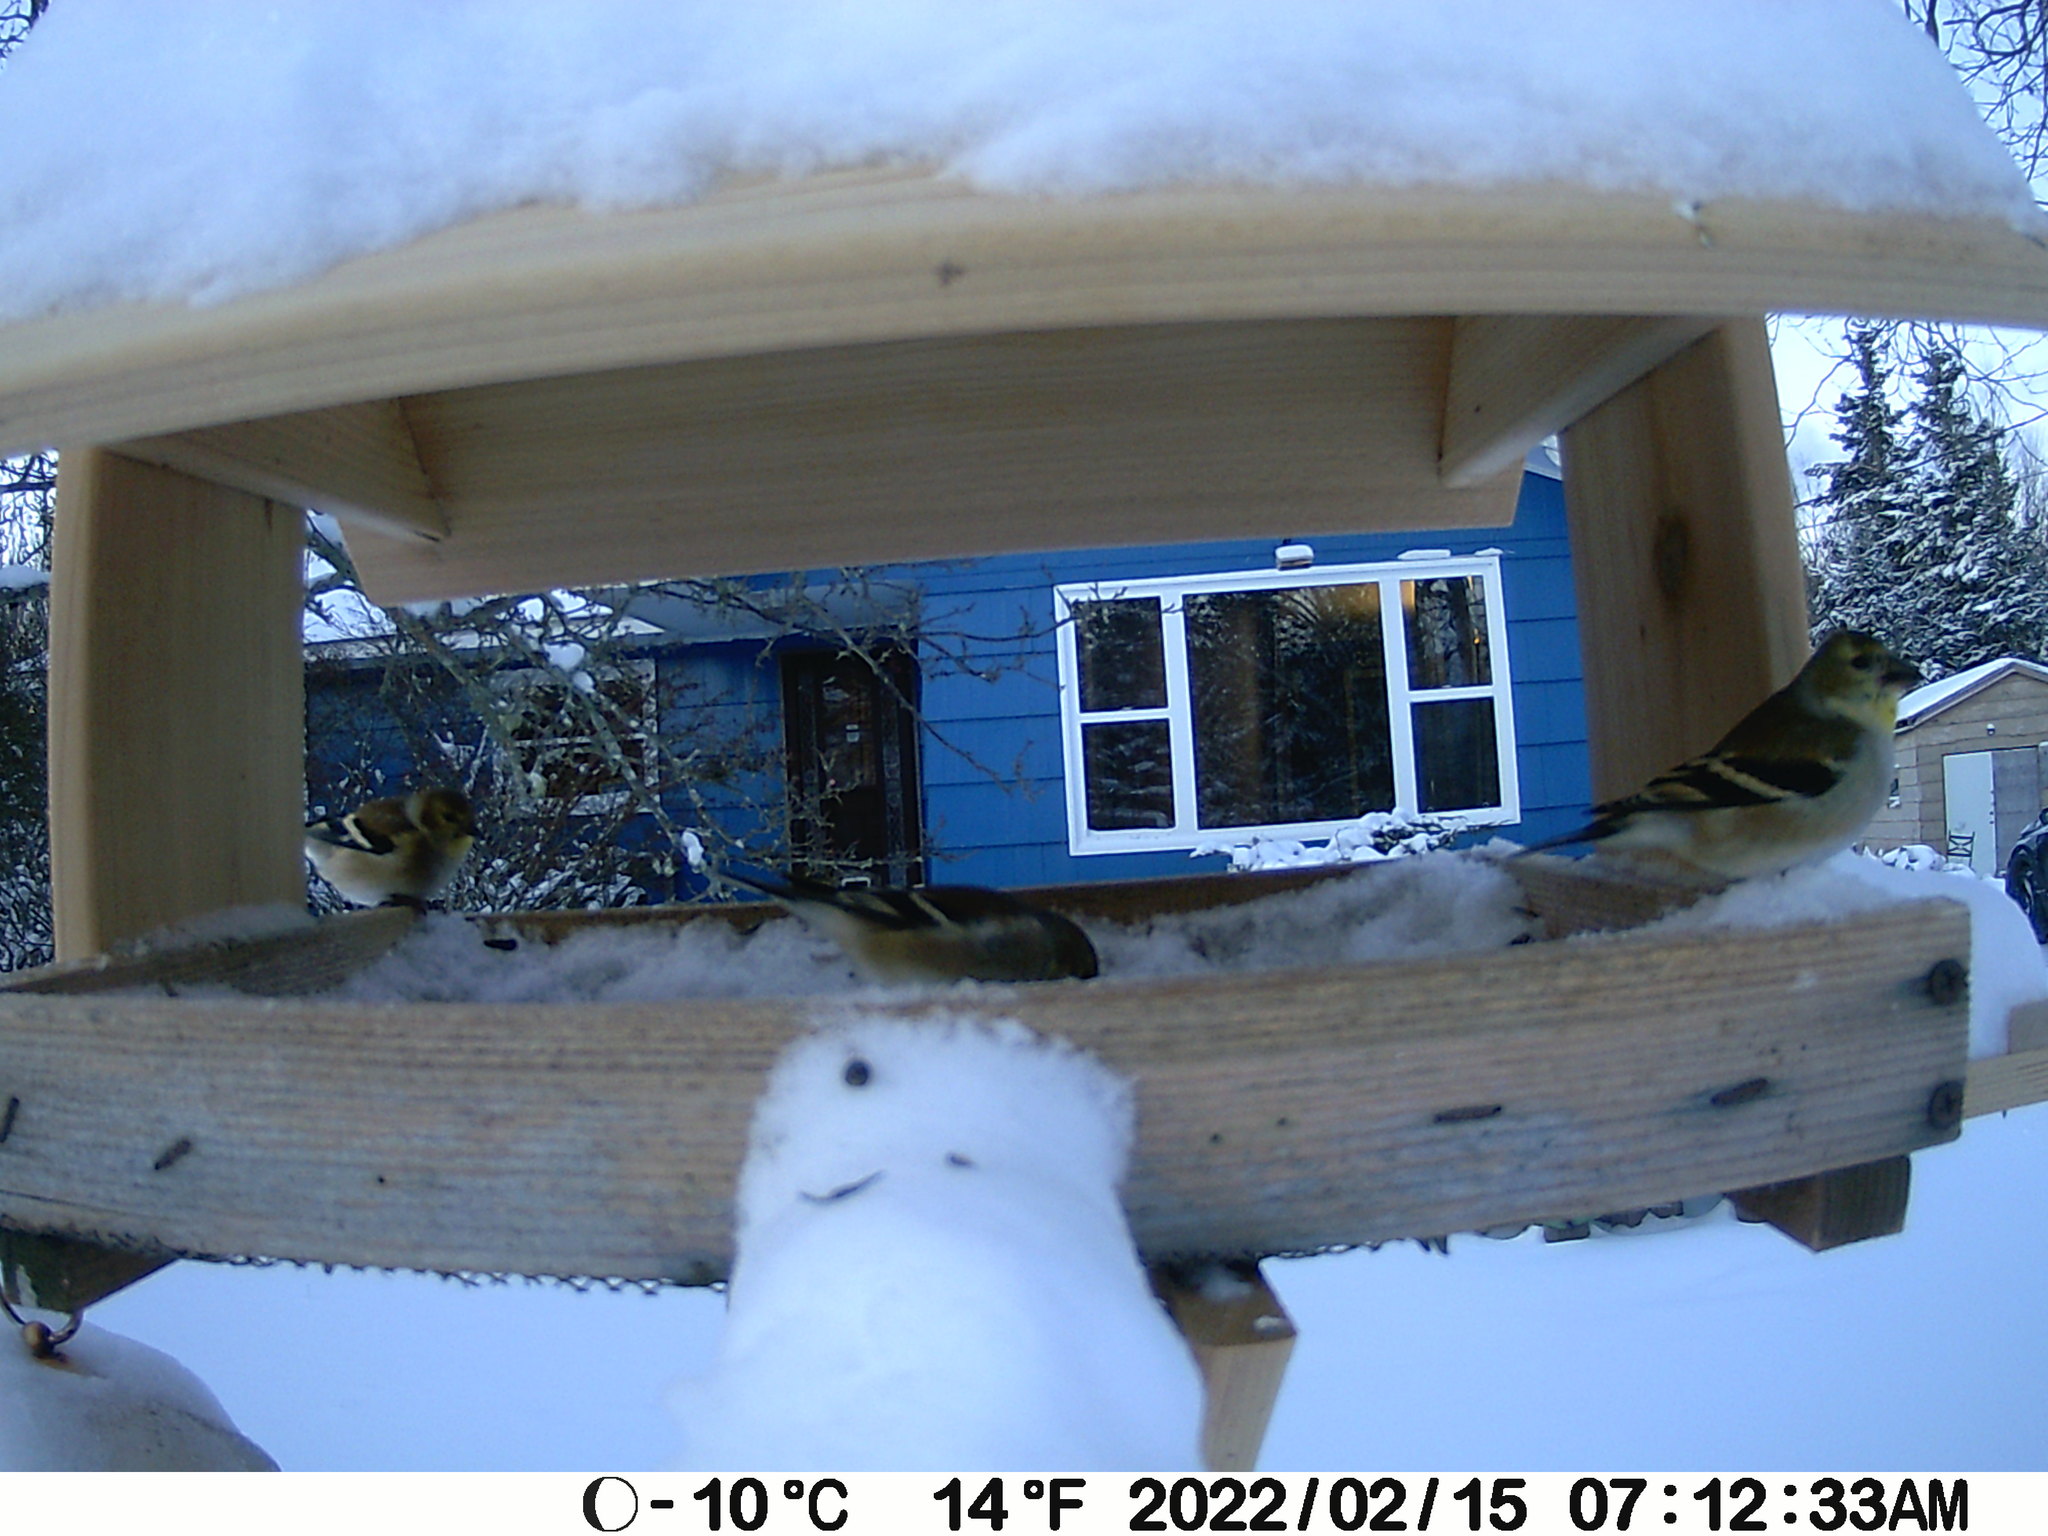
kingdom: Animalia
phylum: Chordata
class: Aves
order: Passeriformes
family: Fringillidae
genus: Spinus
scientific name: Spinus tristis
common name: American goldfinch
